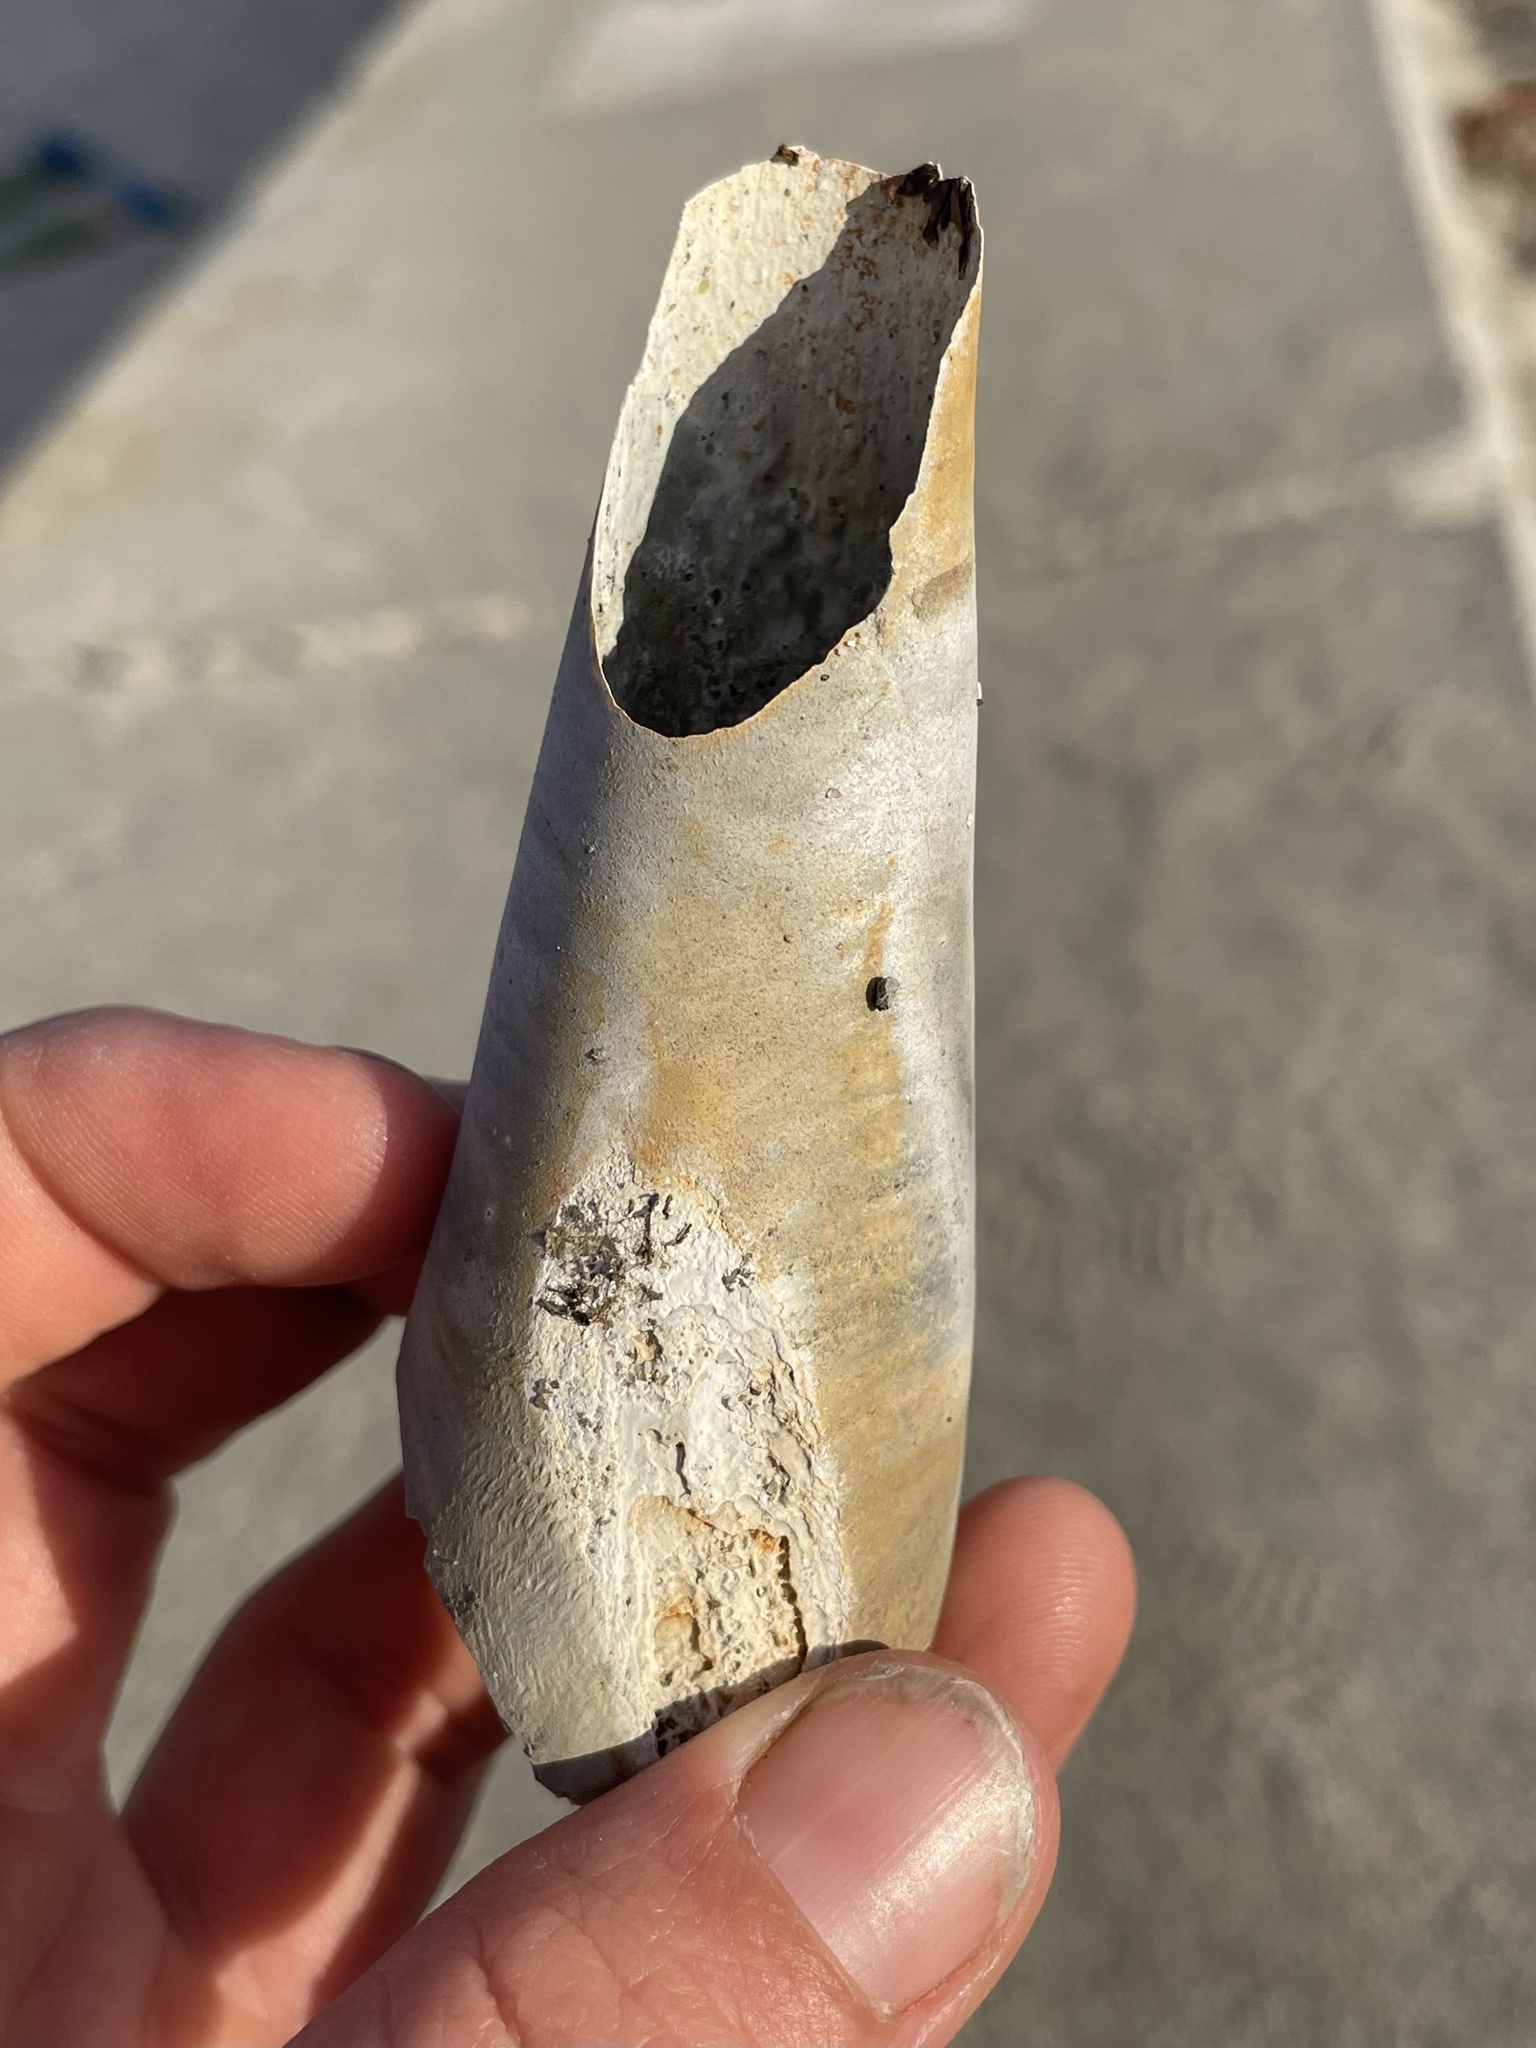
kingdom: Animalia
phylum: Mollusca
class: Bivalvia
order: Myida
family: Pholadidae
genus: Parapholas
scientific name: Parapholas californica
